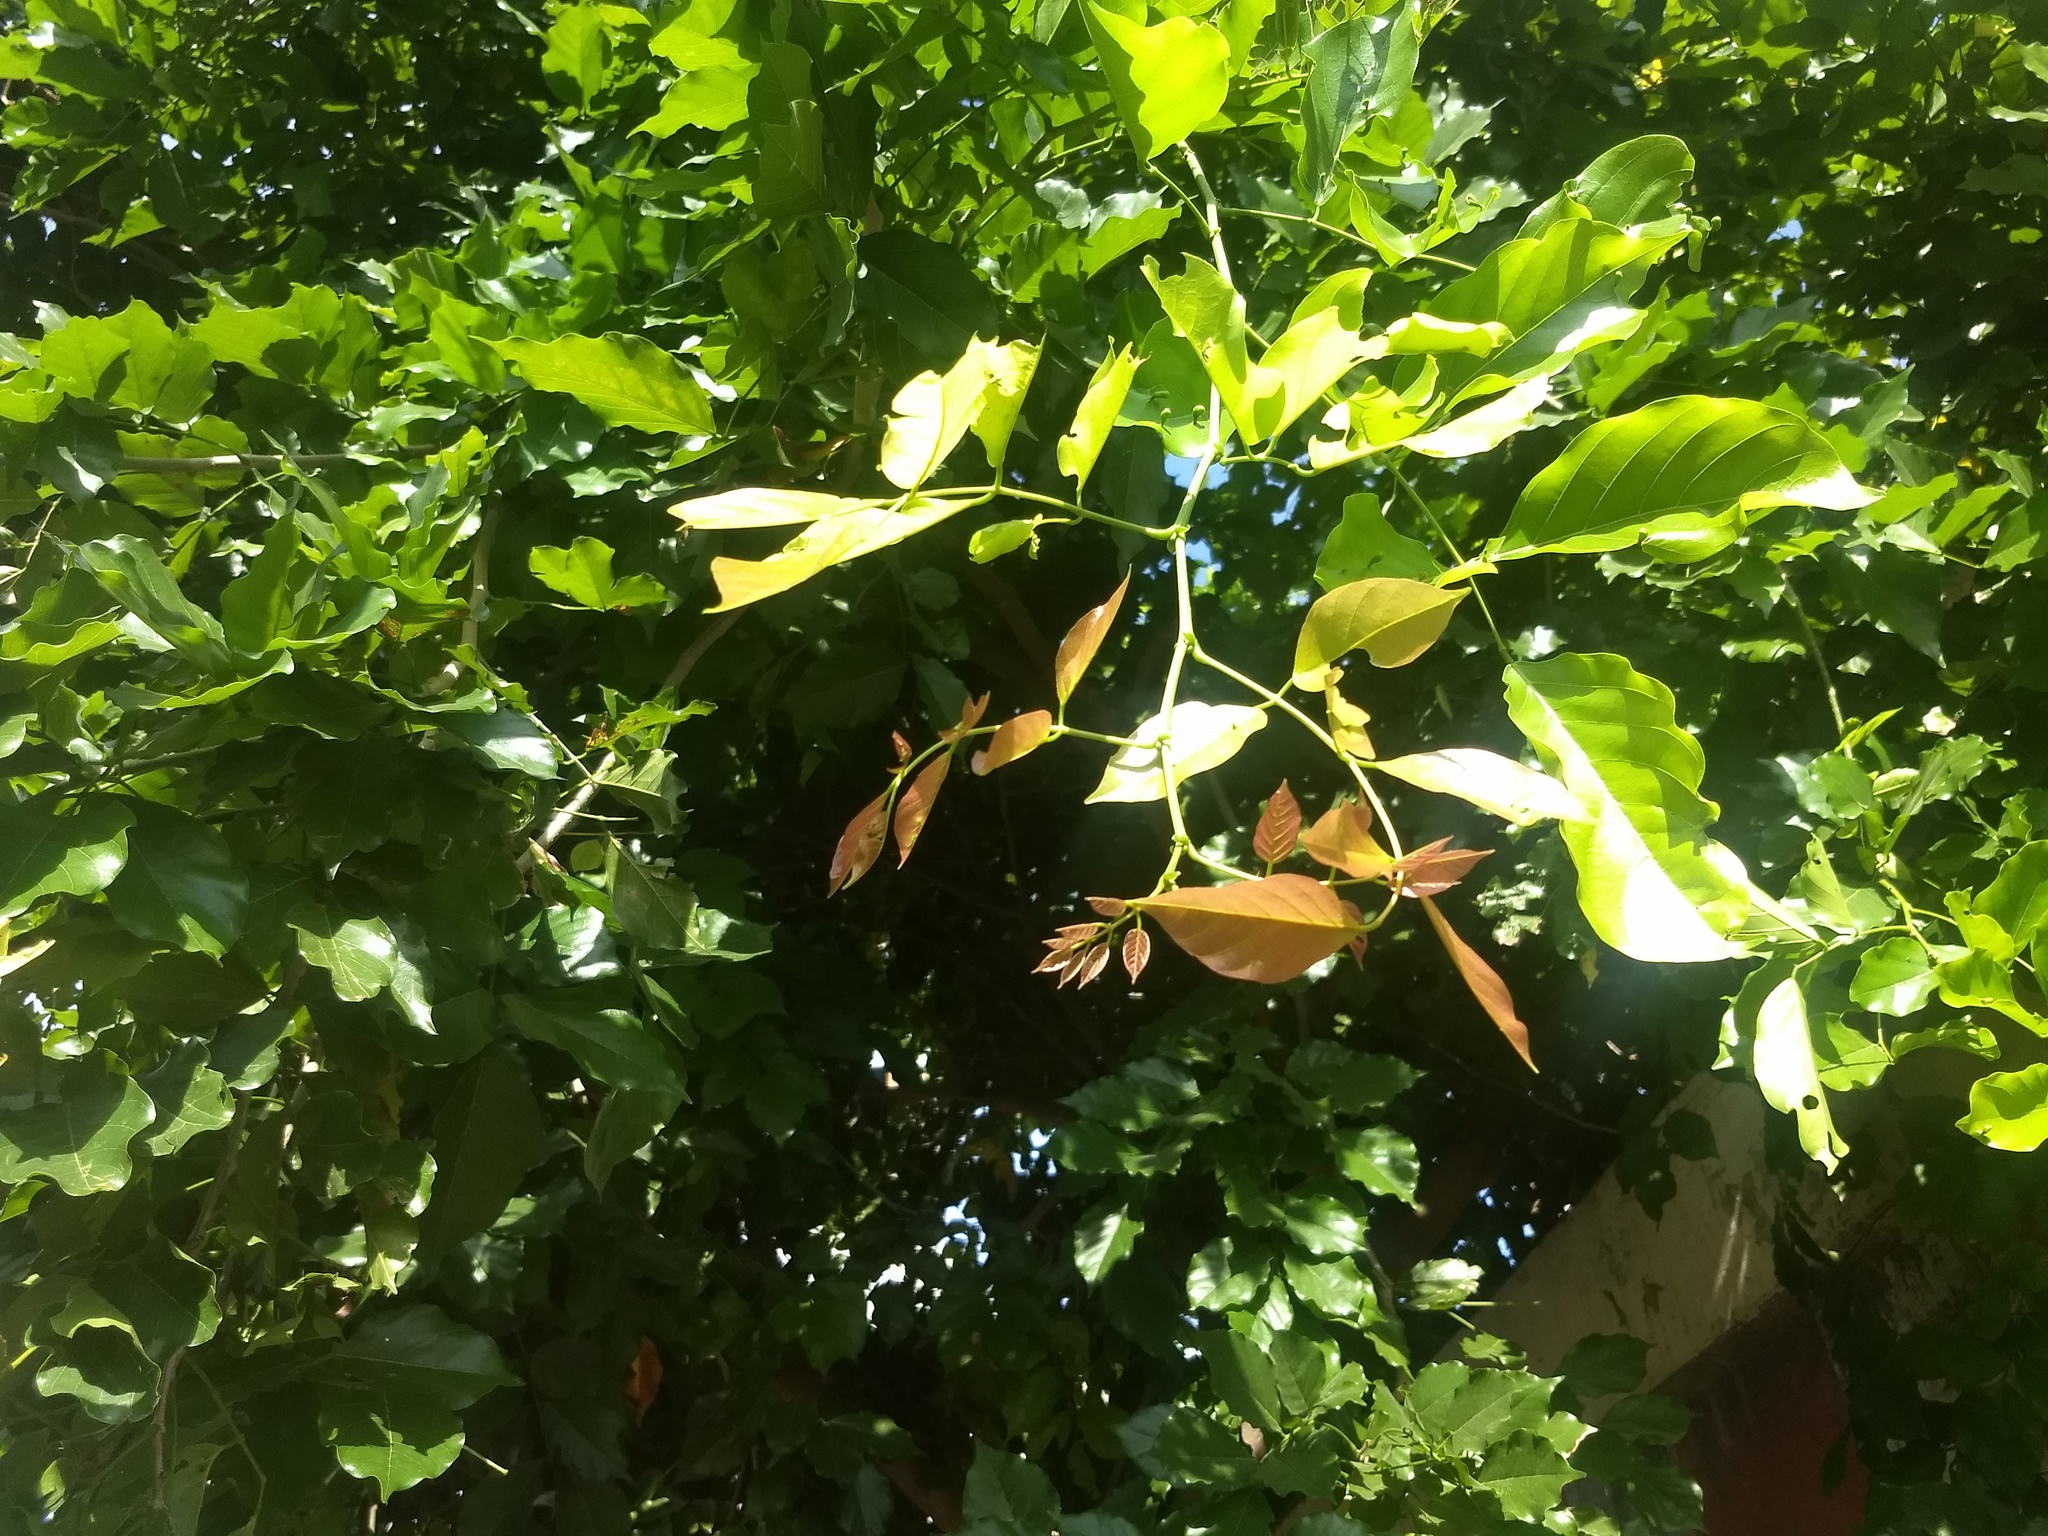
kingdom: Plantae
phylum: Tracheophyta
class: Magnoliopsida
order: Fabales
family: Fabaceae
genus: Pongamia
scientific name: Pongamia pinnata
